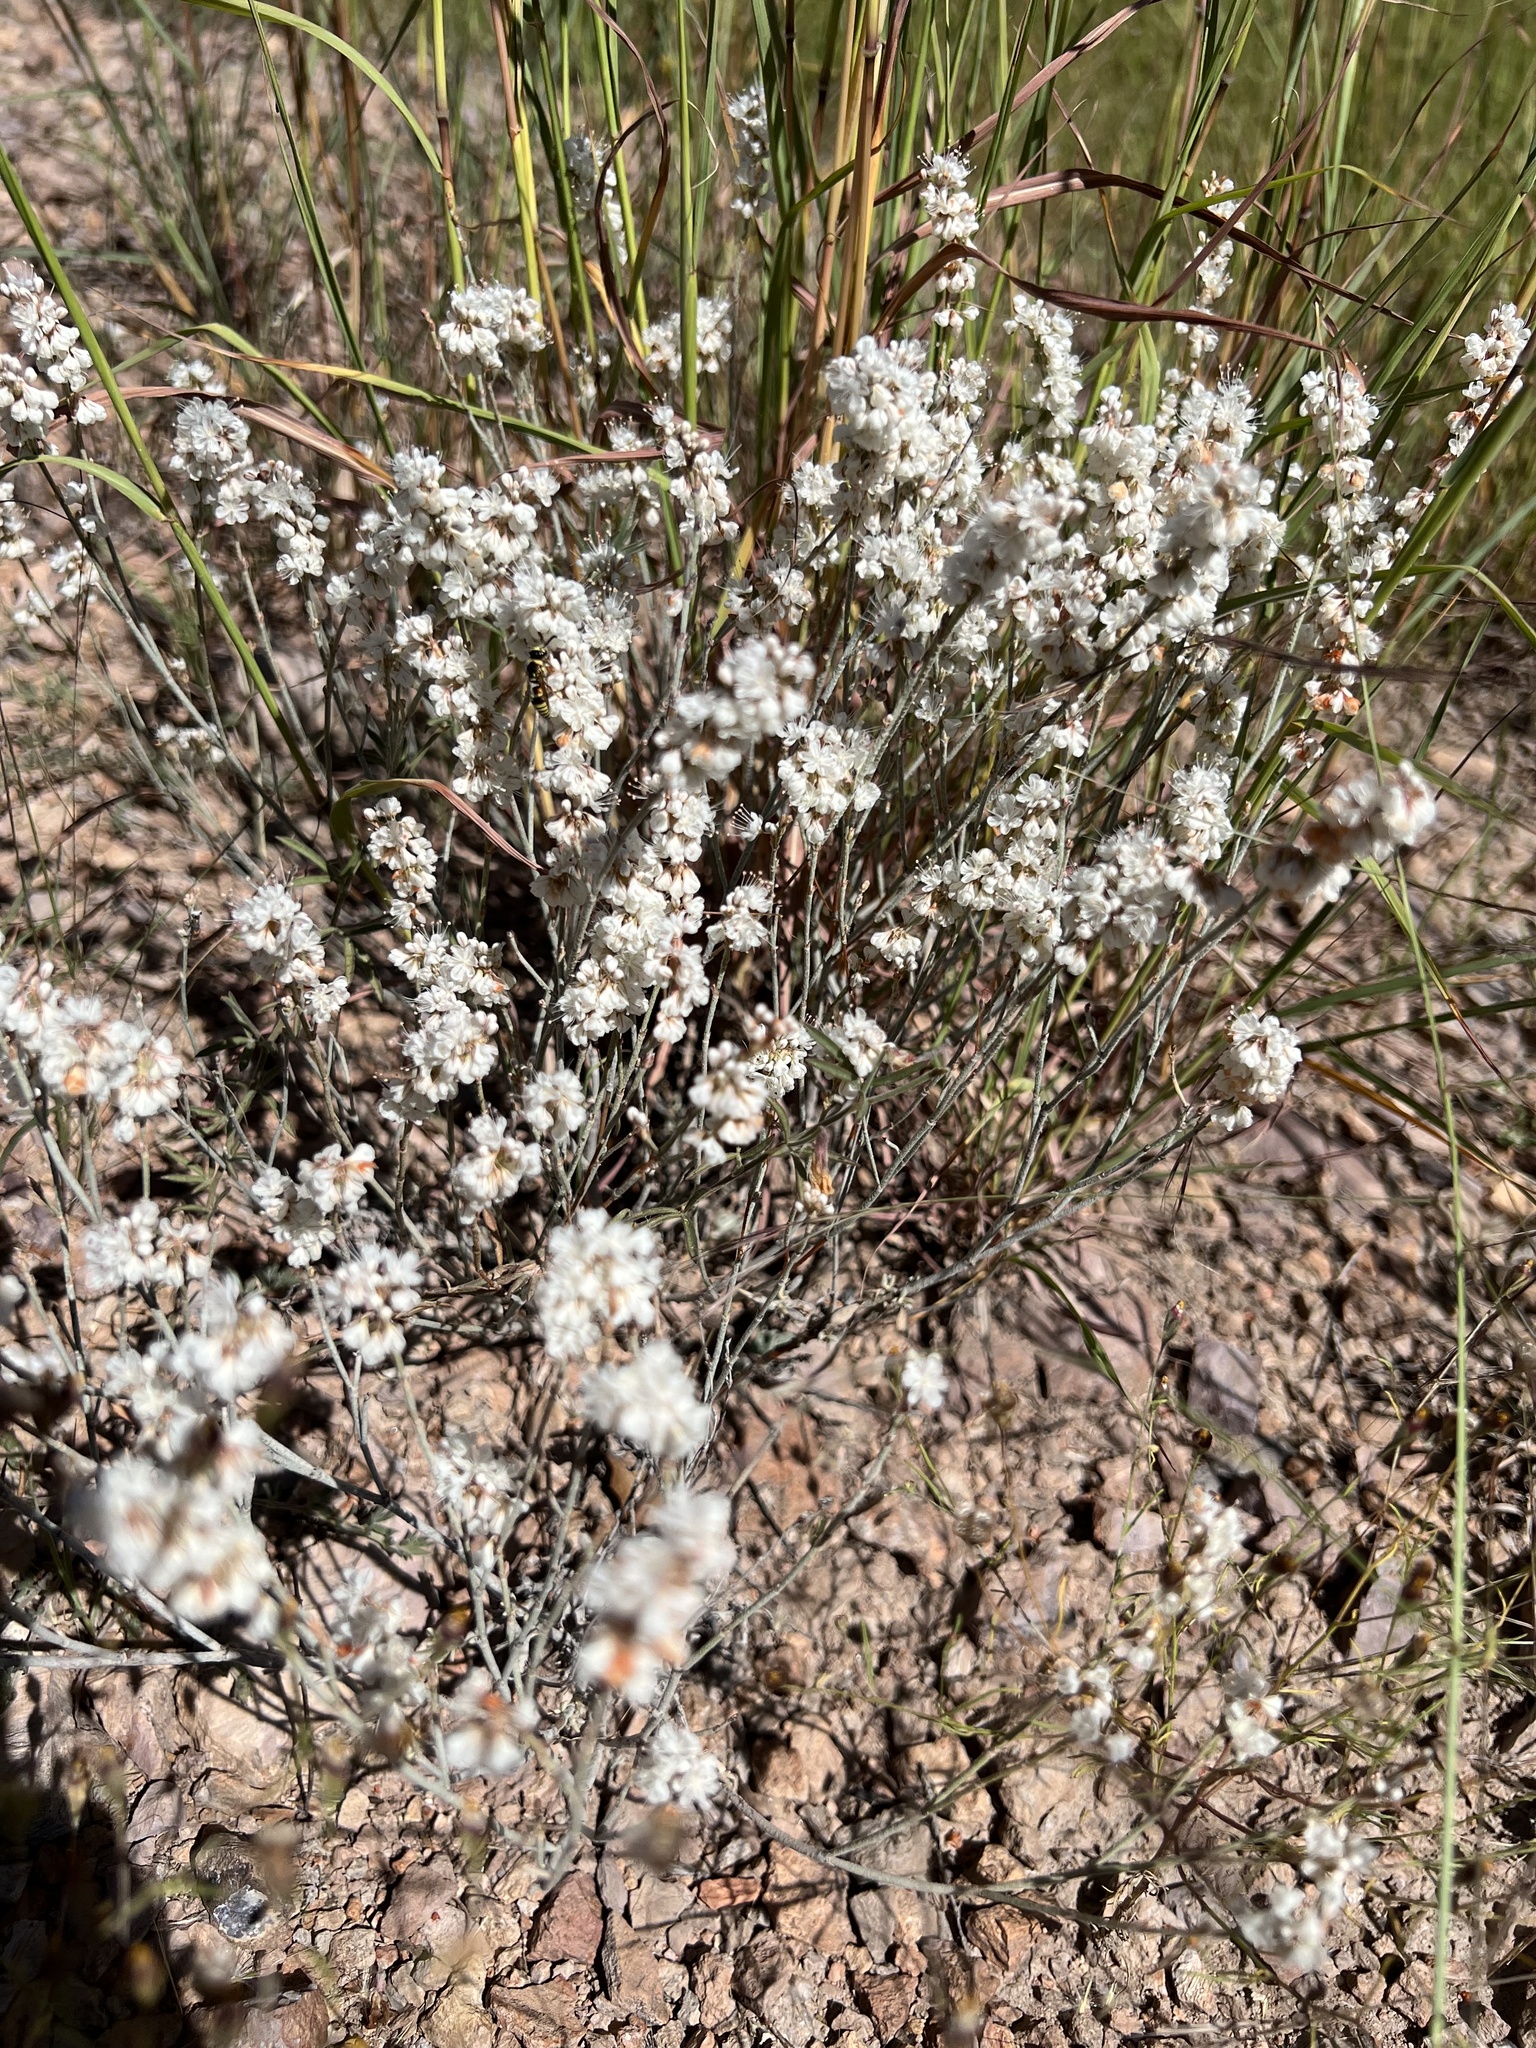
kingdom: Plantae
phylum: Tracheophyta
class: Magnoliopsida
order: Caryophyllales
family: Polygonaceae
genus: Eriogonum
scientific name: Eriogonum wrightii
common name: Bastard-sage
